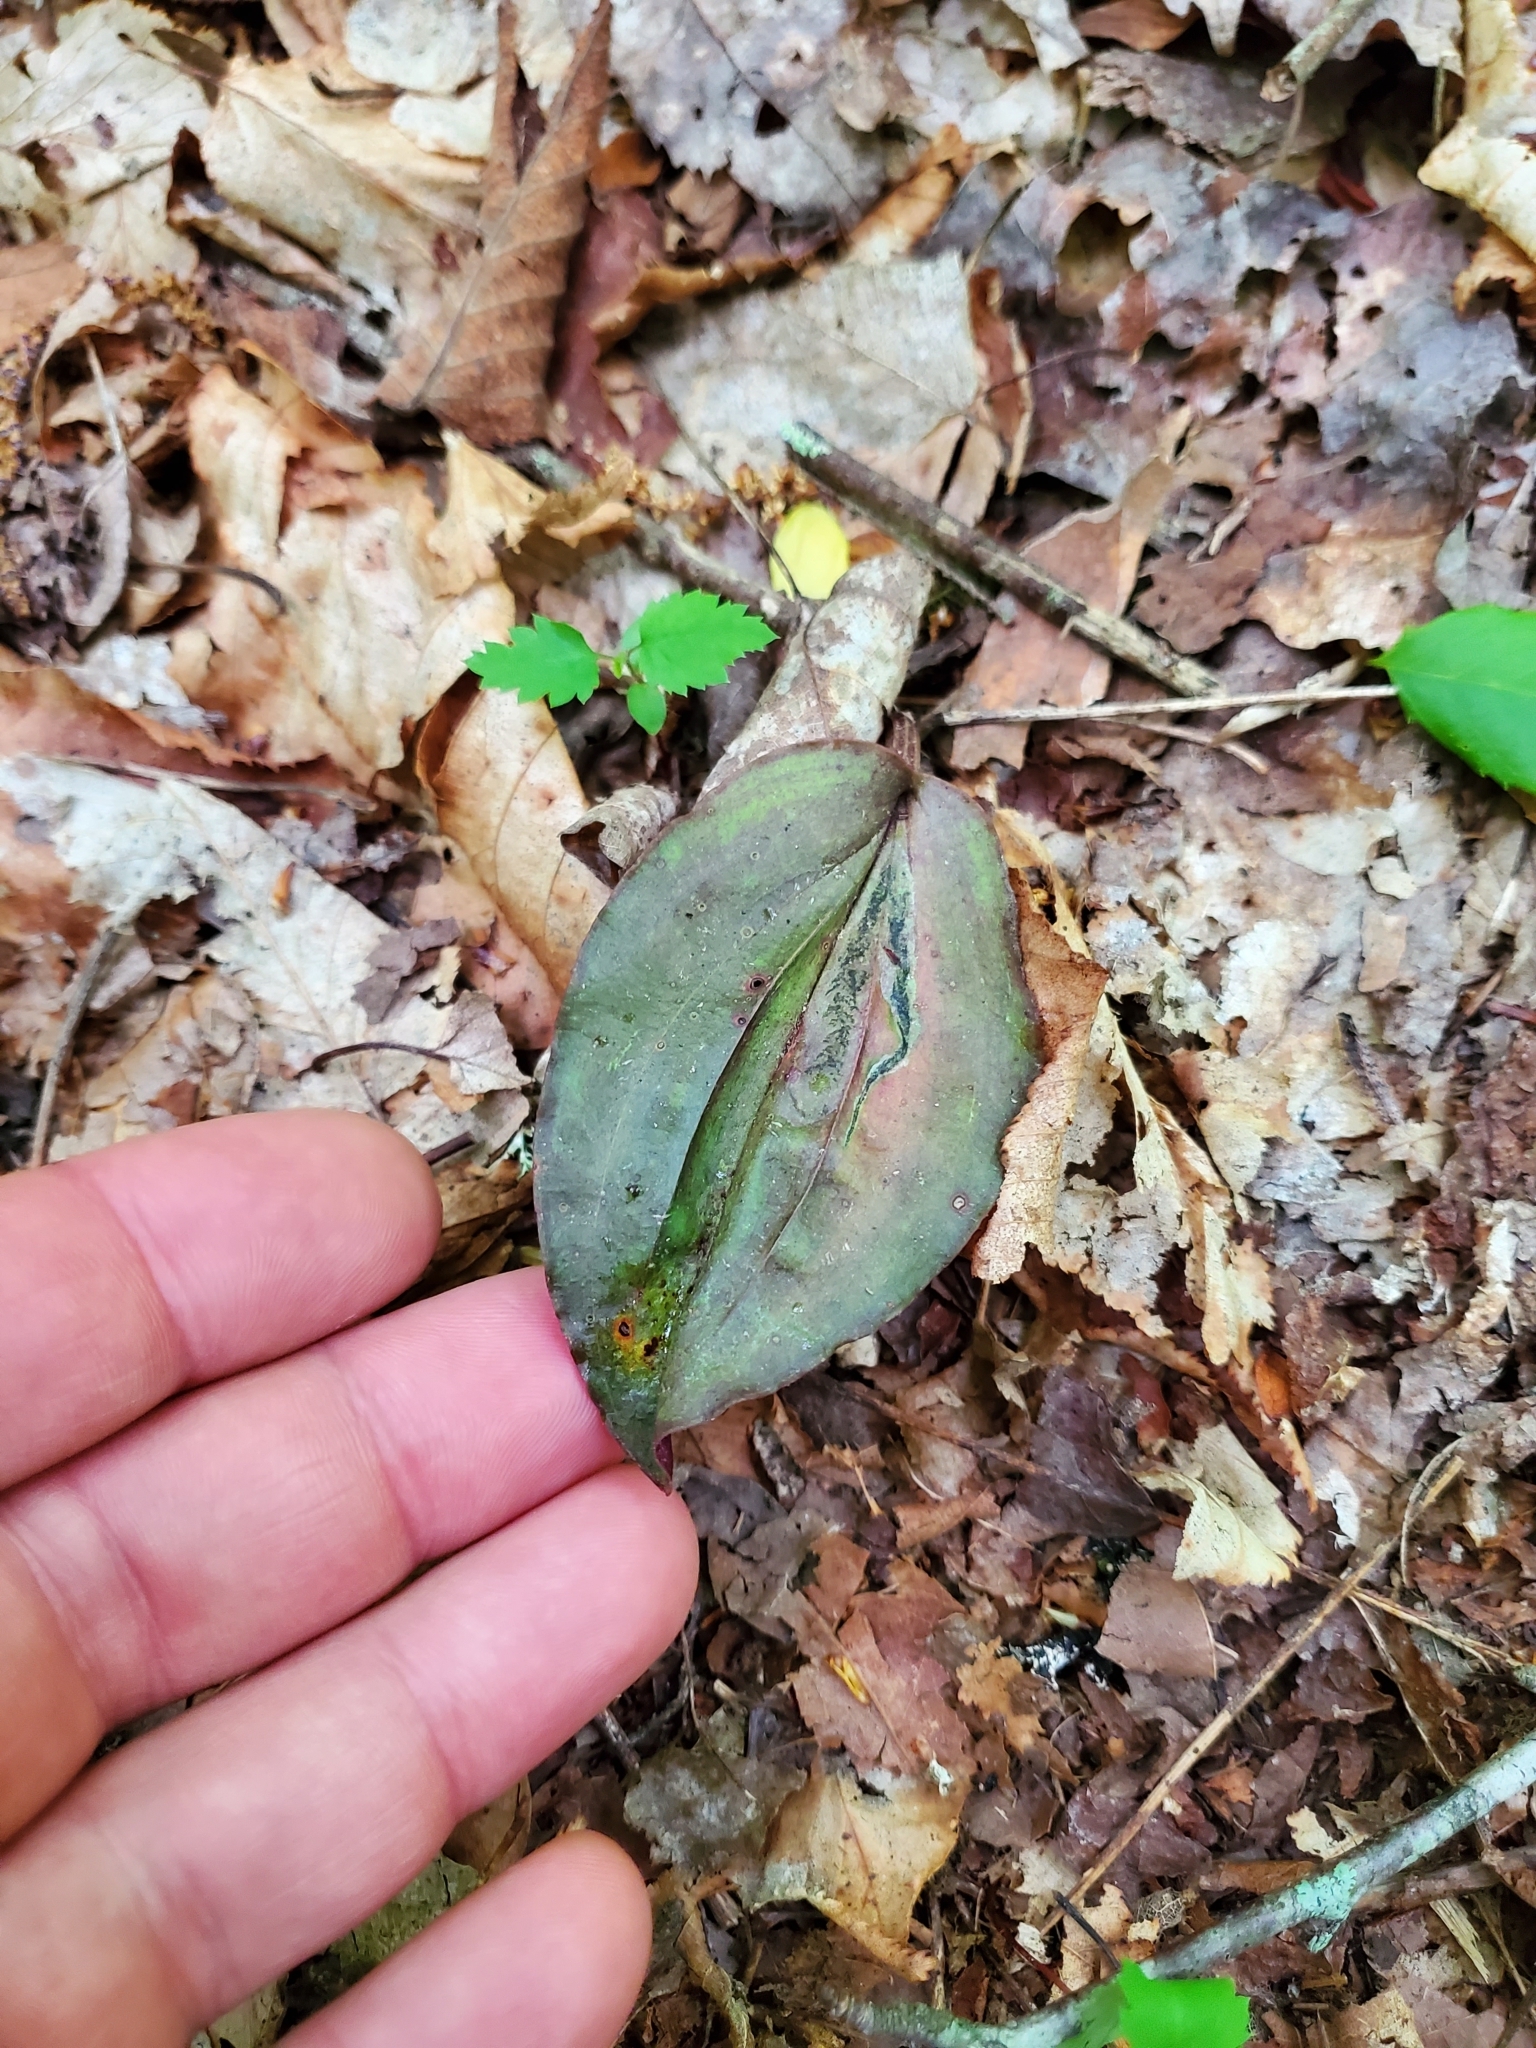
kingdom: Plantae
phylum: Tracheophyta
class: Liliopsida
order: Asparagales
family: Orchidaceae
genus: Tipularia
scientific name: Tipularia discolor
